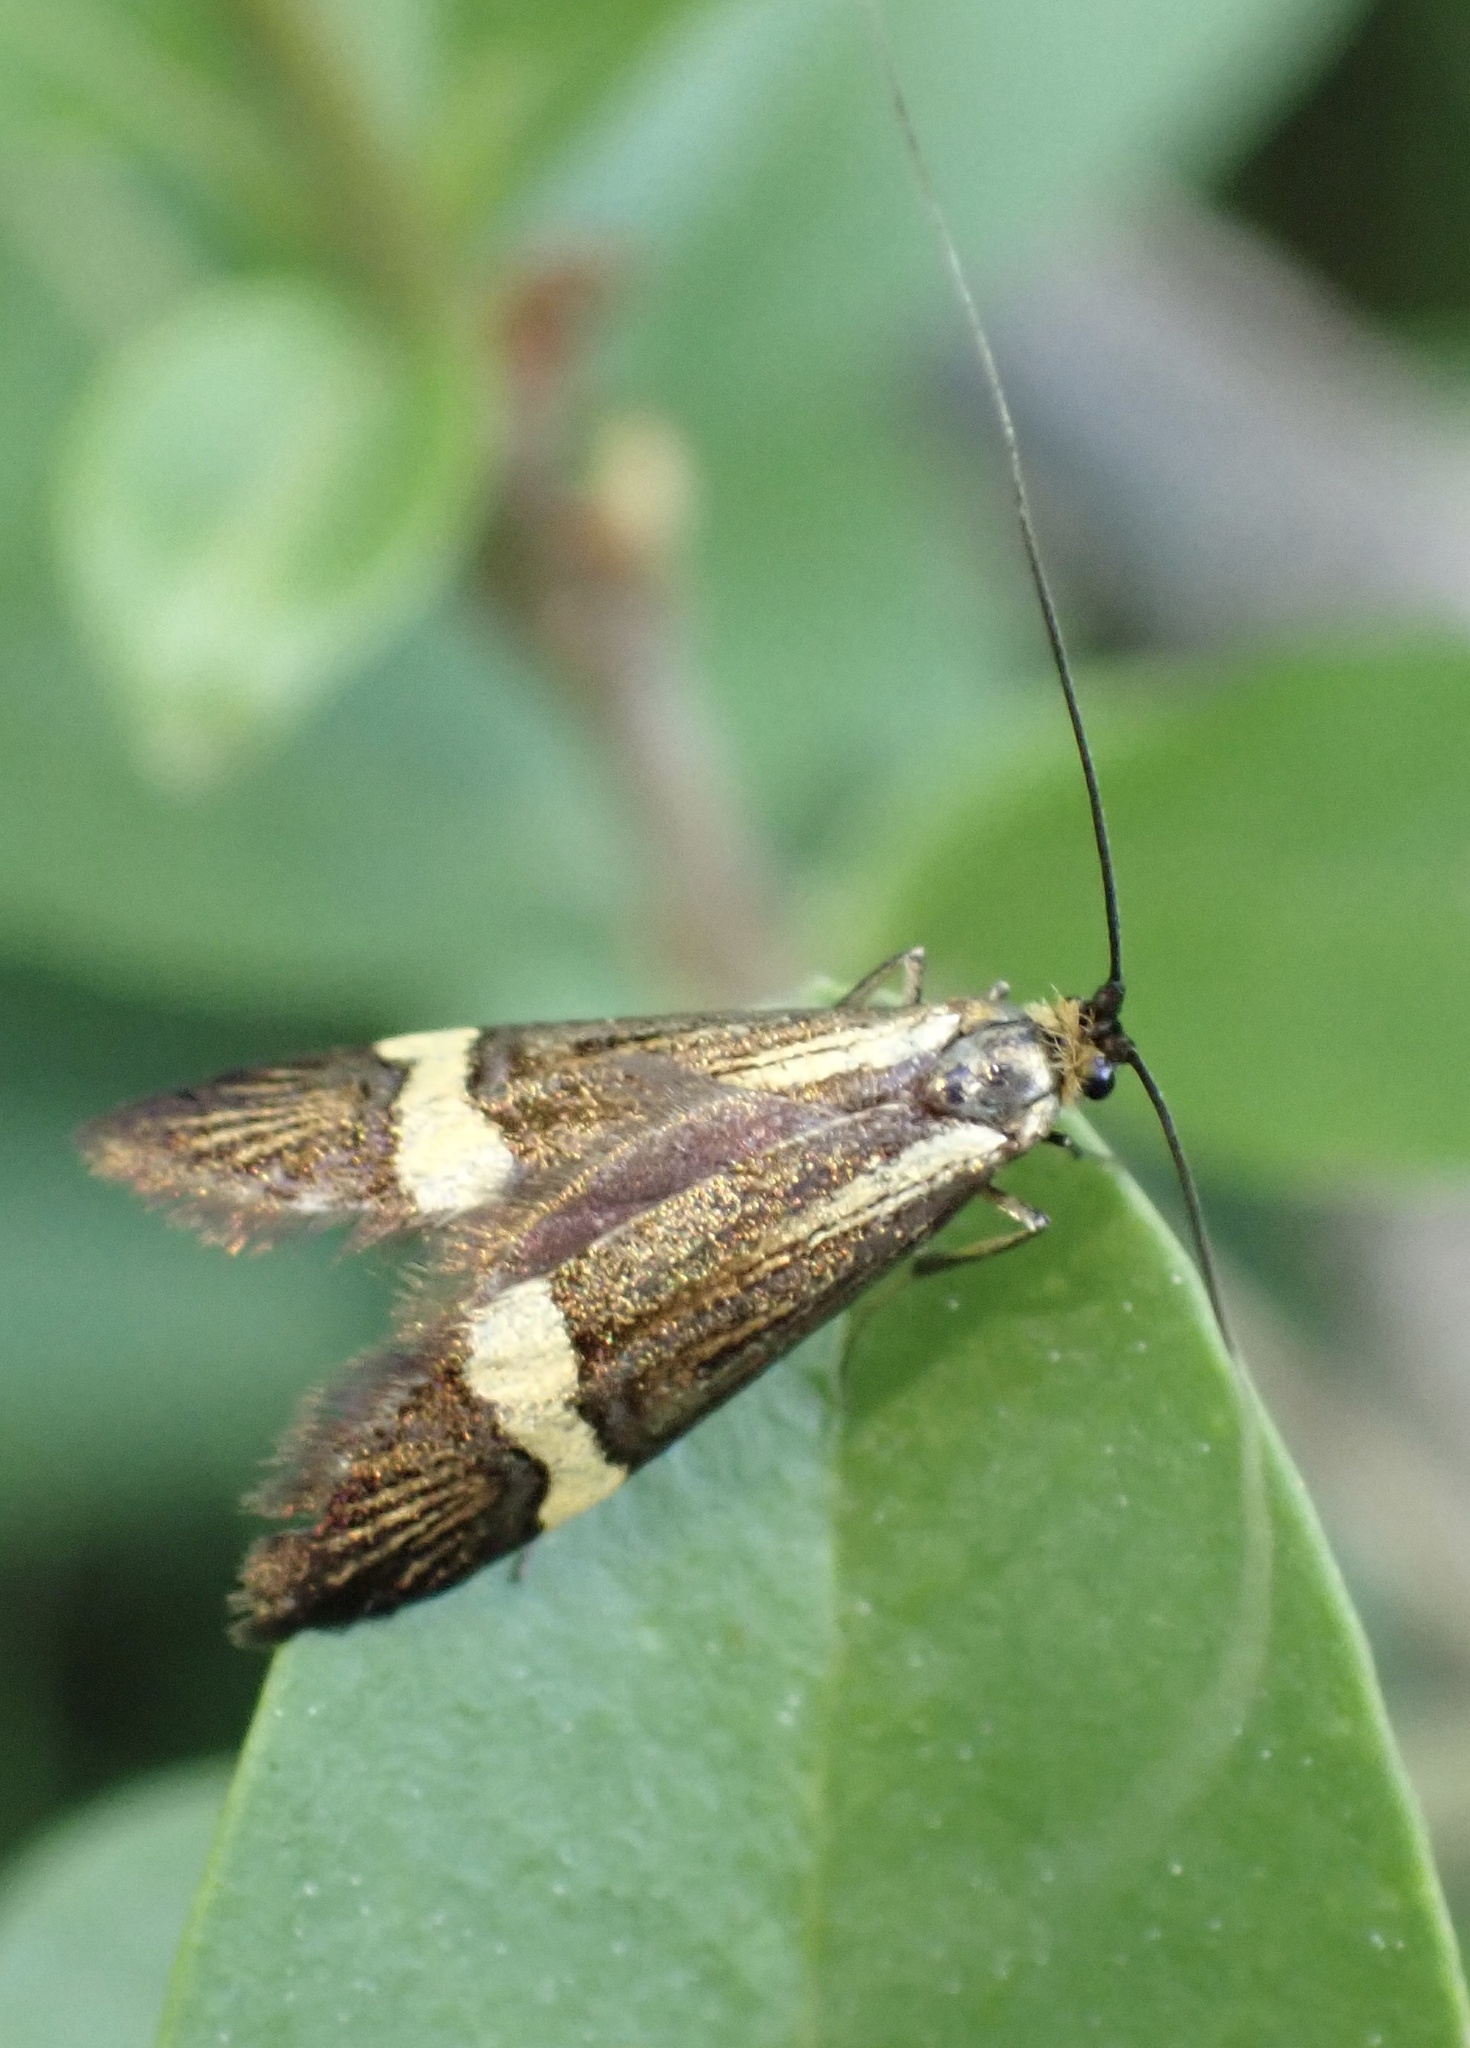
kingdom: Animalia
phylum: Arthropoda
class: Insecta
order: Lepidoptera
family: Adelidae
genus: Nemophora
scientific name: Nemophora degeerella
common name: Yellow-barred long-horn
